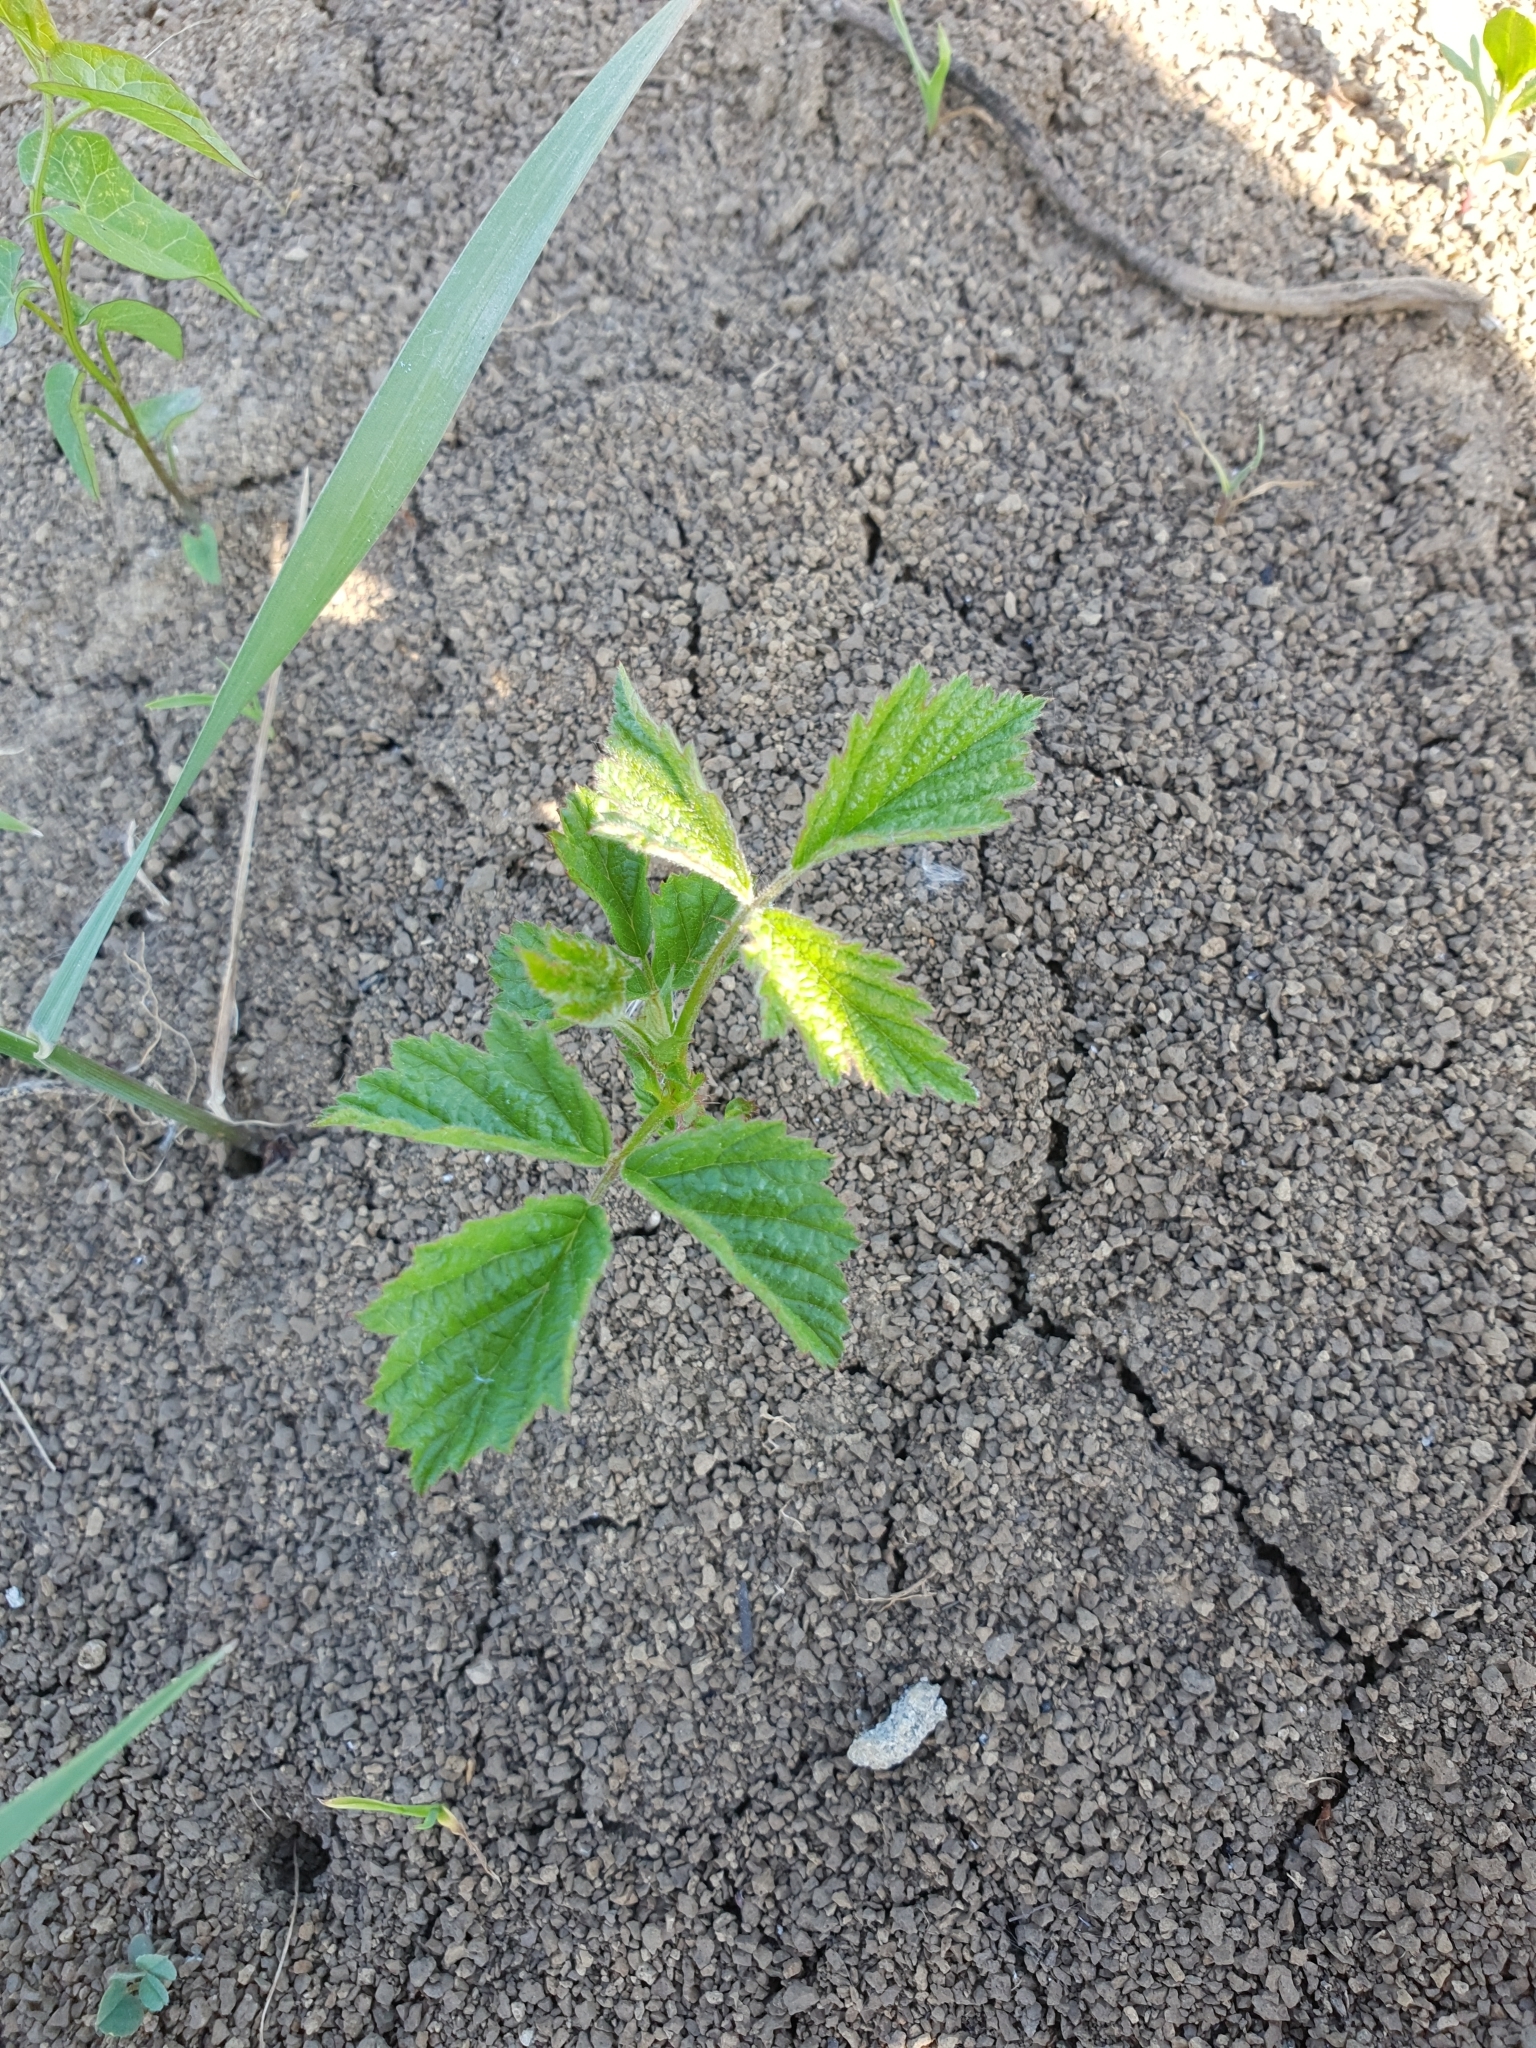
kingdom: Plantae
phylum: Tracheophyta
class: Magnoliopsida
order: Rosales
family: Rosaceae
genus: Rubus
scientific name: Rubus caesius
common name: Dewberry
